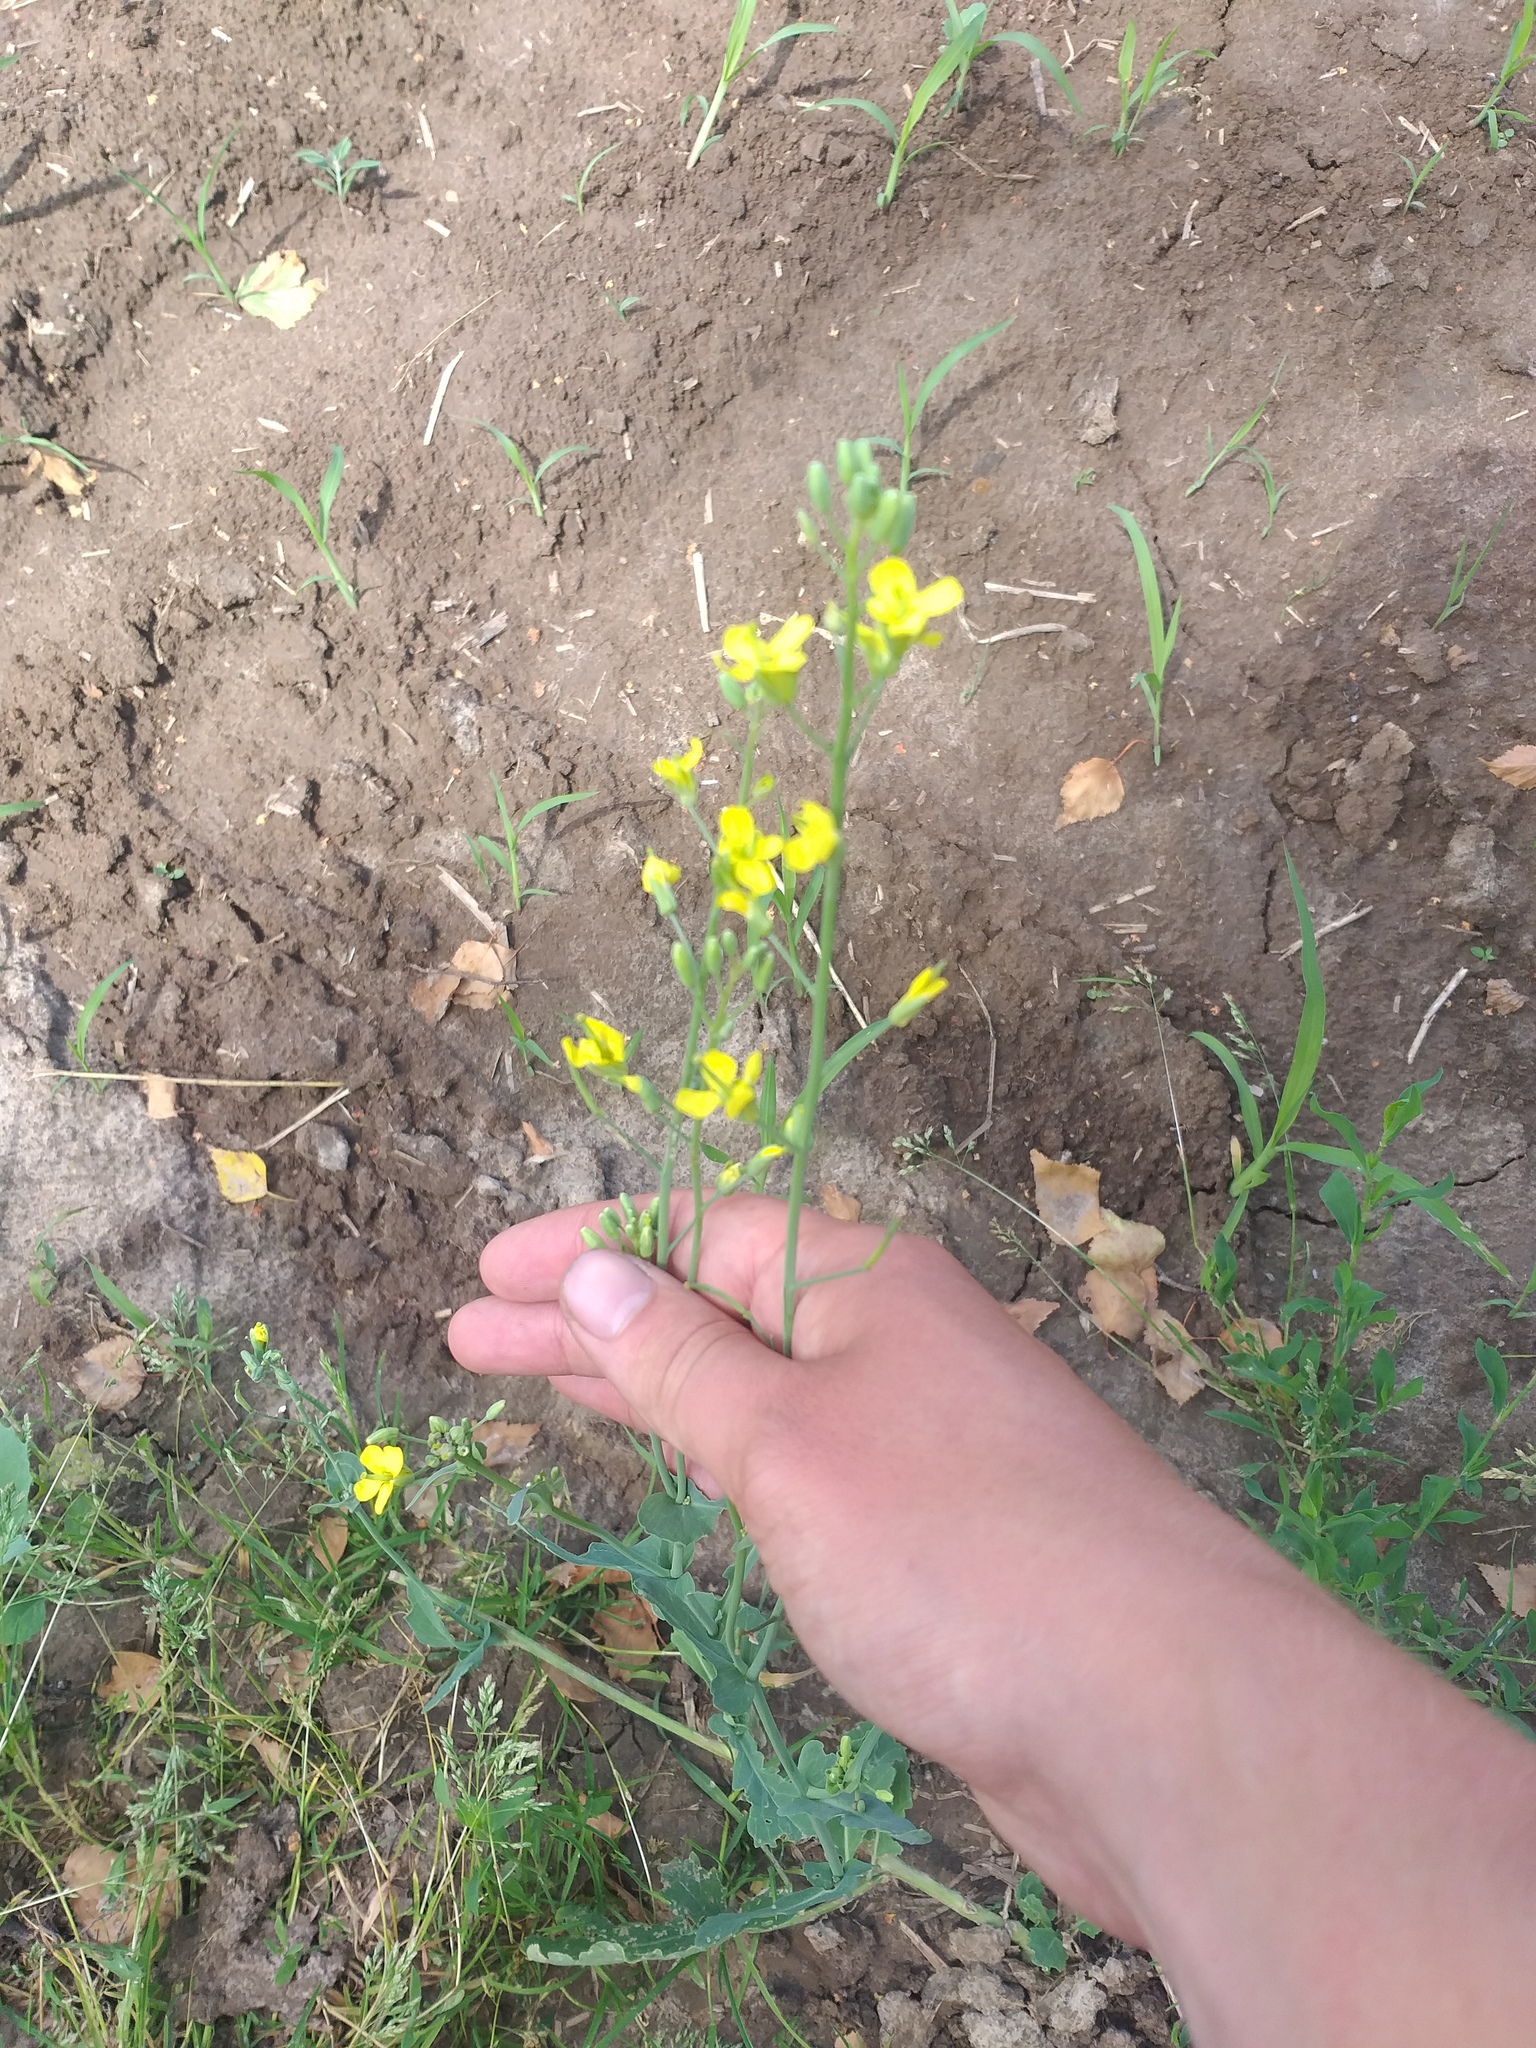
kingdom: Plantae
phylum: Tracheophyta
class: Magnoliopsida
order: Brassicales
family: Brassicaceae
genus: Brassica
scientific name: Brassica napus
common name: Rape
